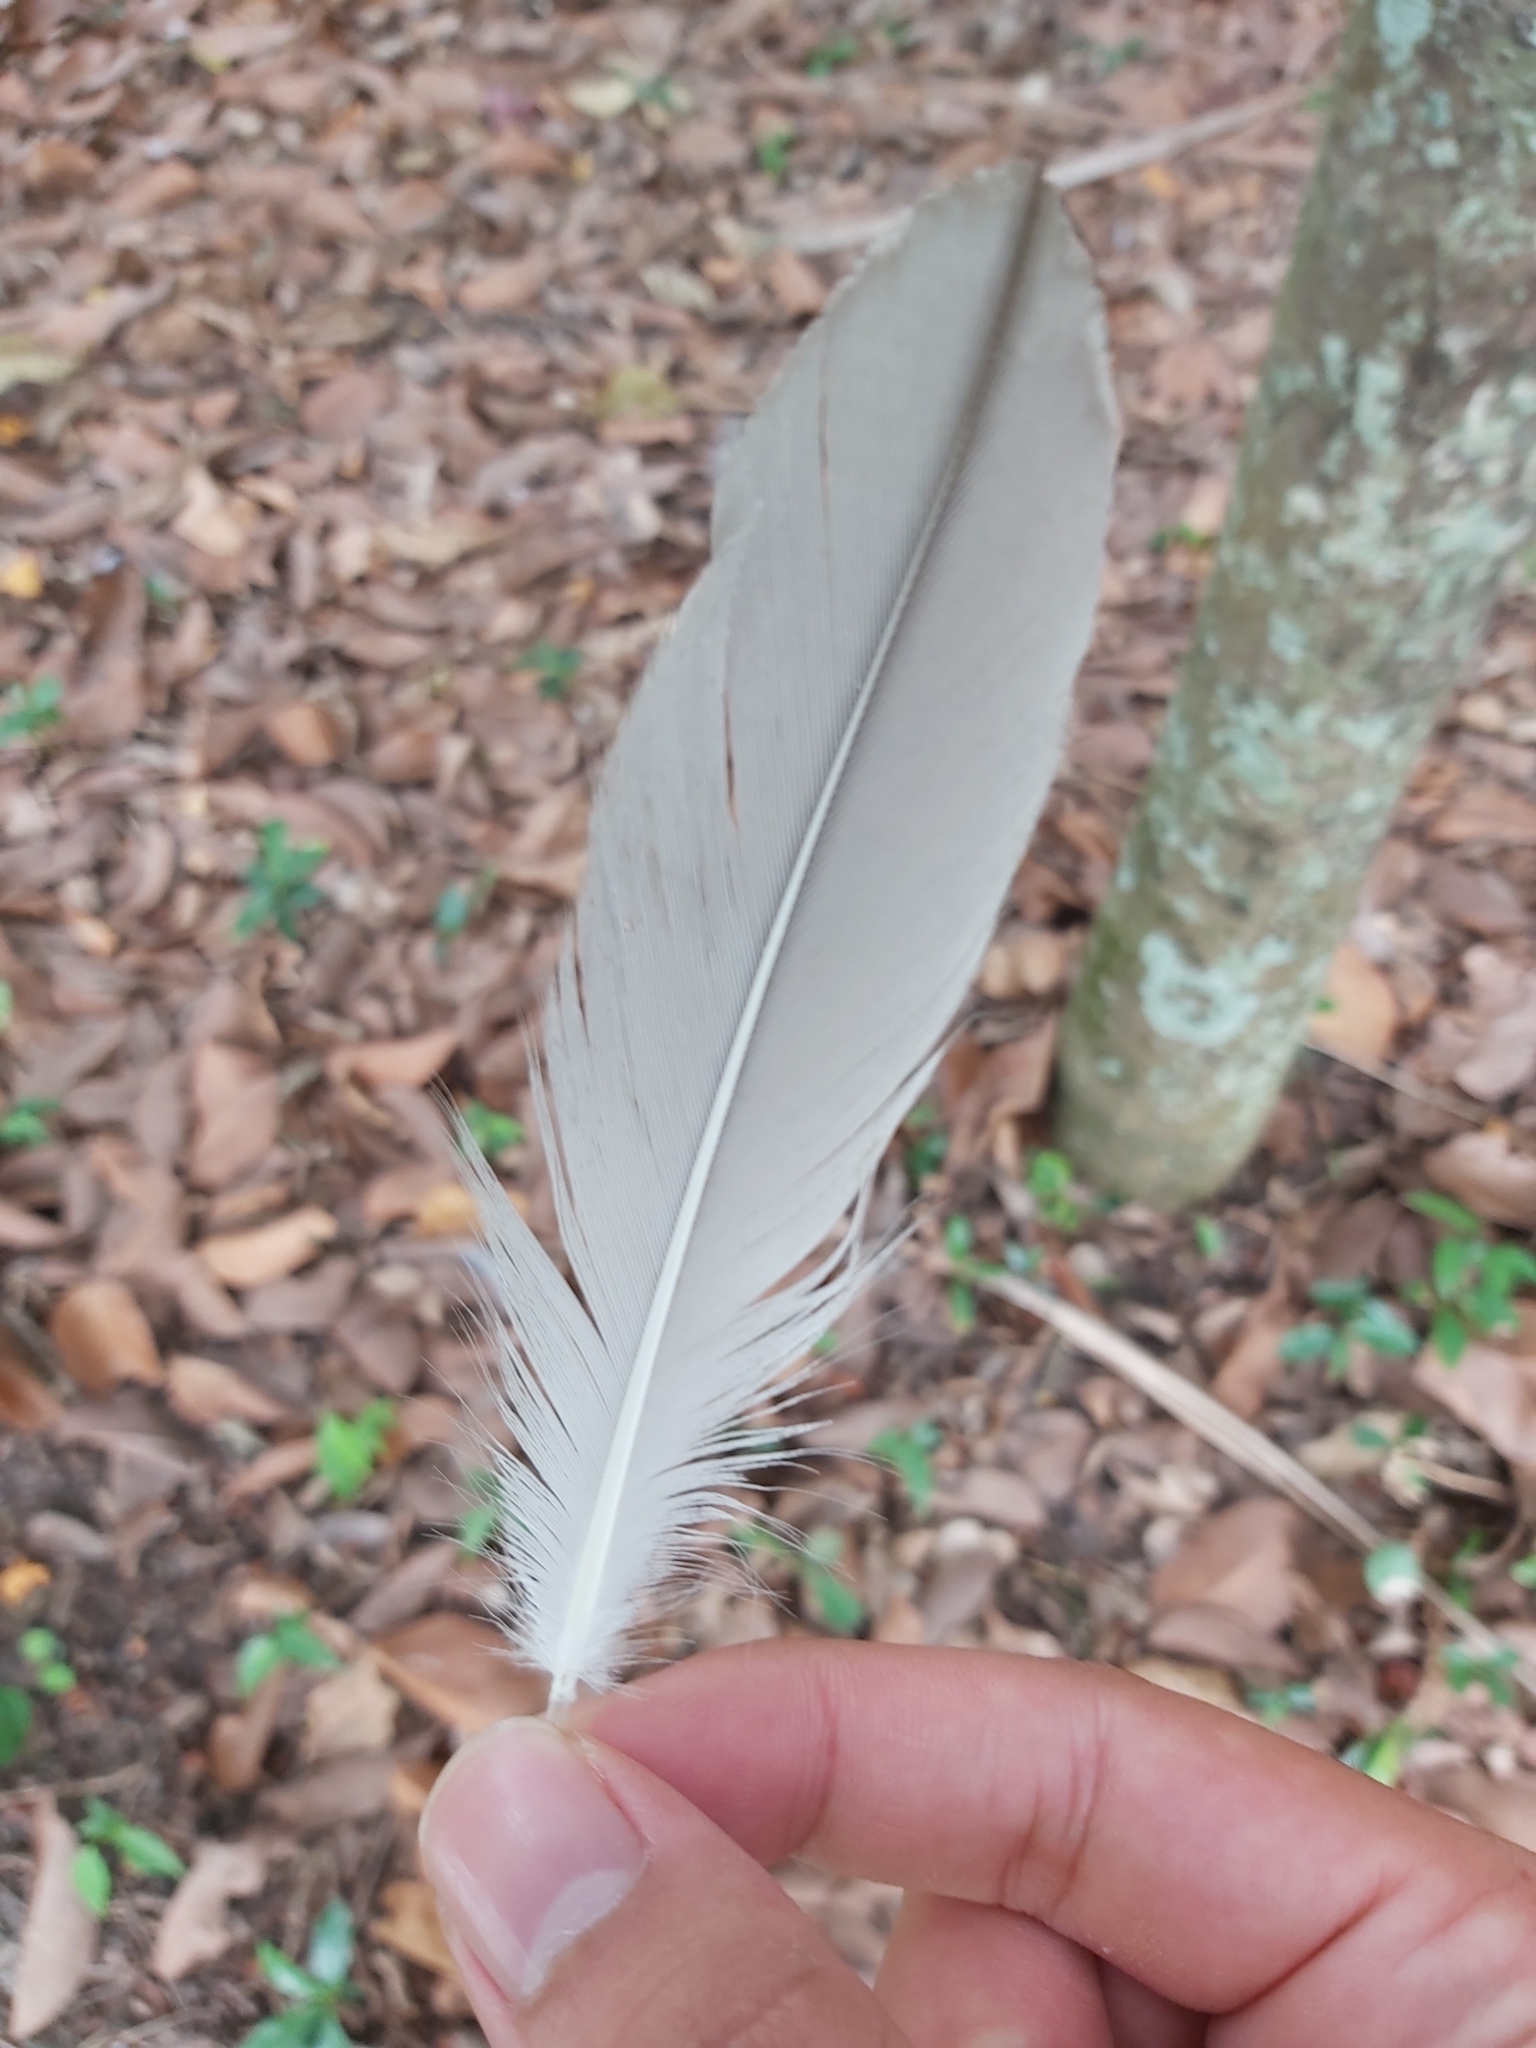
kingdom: Animalia
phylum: Chordata
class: Aves
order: Charadriiformes
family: Burhinidae
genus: Burhinus
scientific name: Burhinus grallarius
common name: Bush stone-curlew
